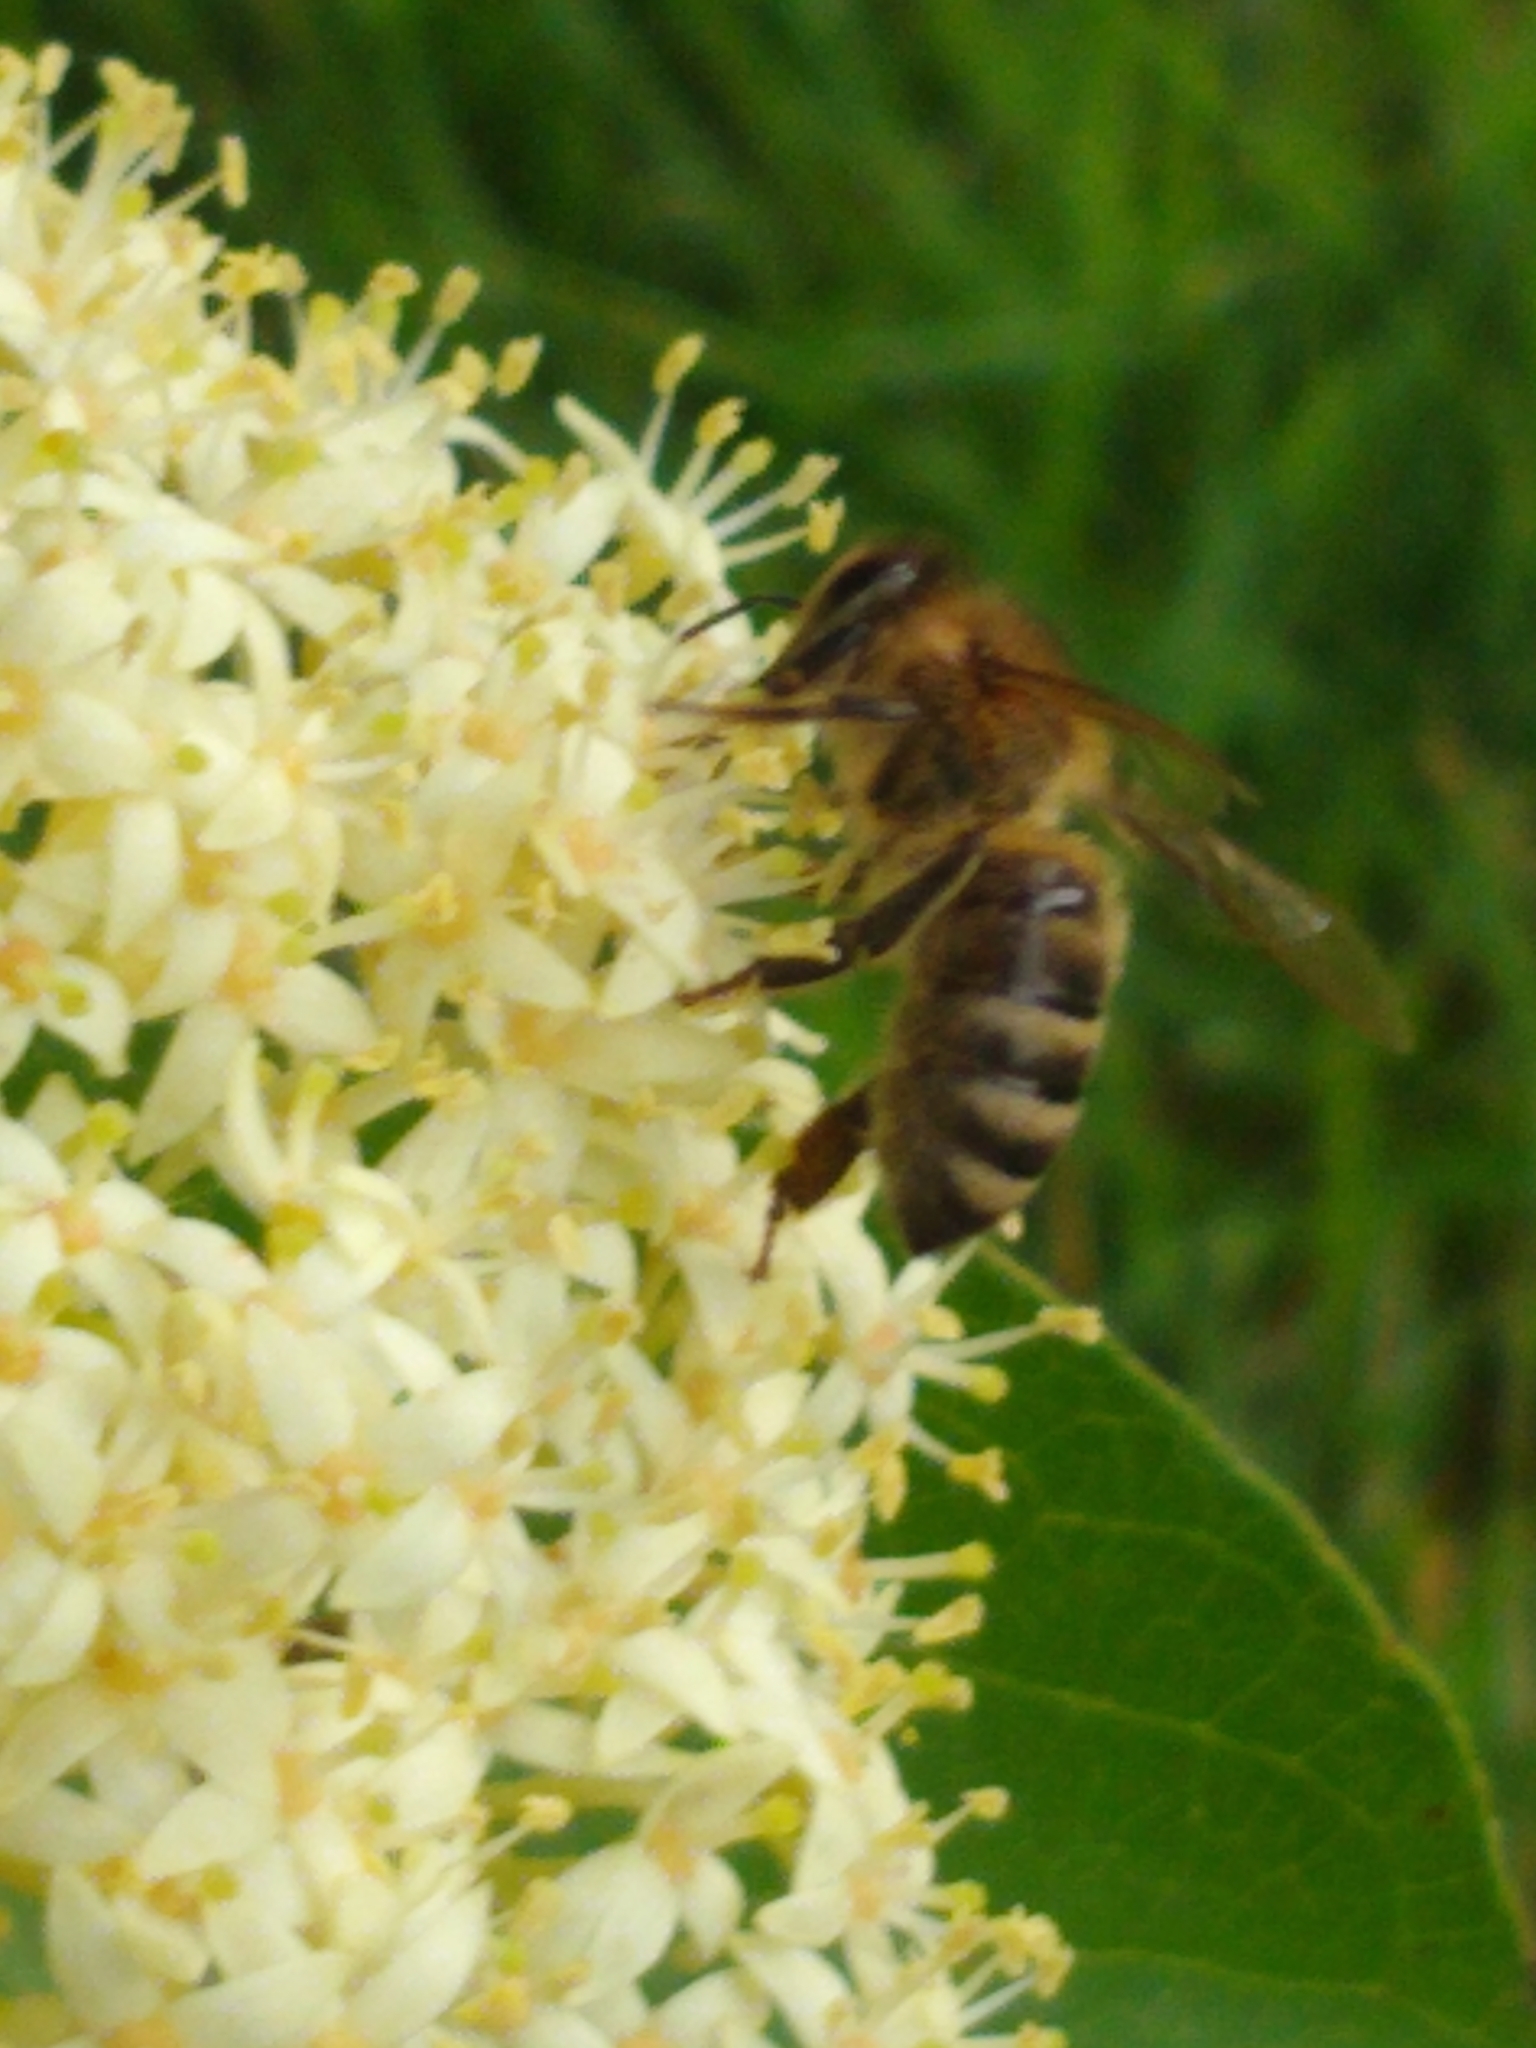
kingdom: Animalia
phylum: Arthropoda
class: Insecta
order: Hymenoptera
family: Apidae
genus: Apis
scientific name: Apis mellifera
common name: Honey bee
